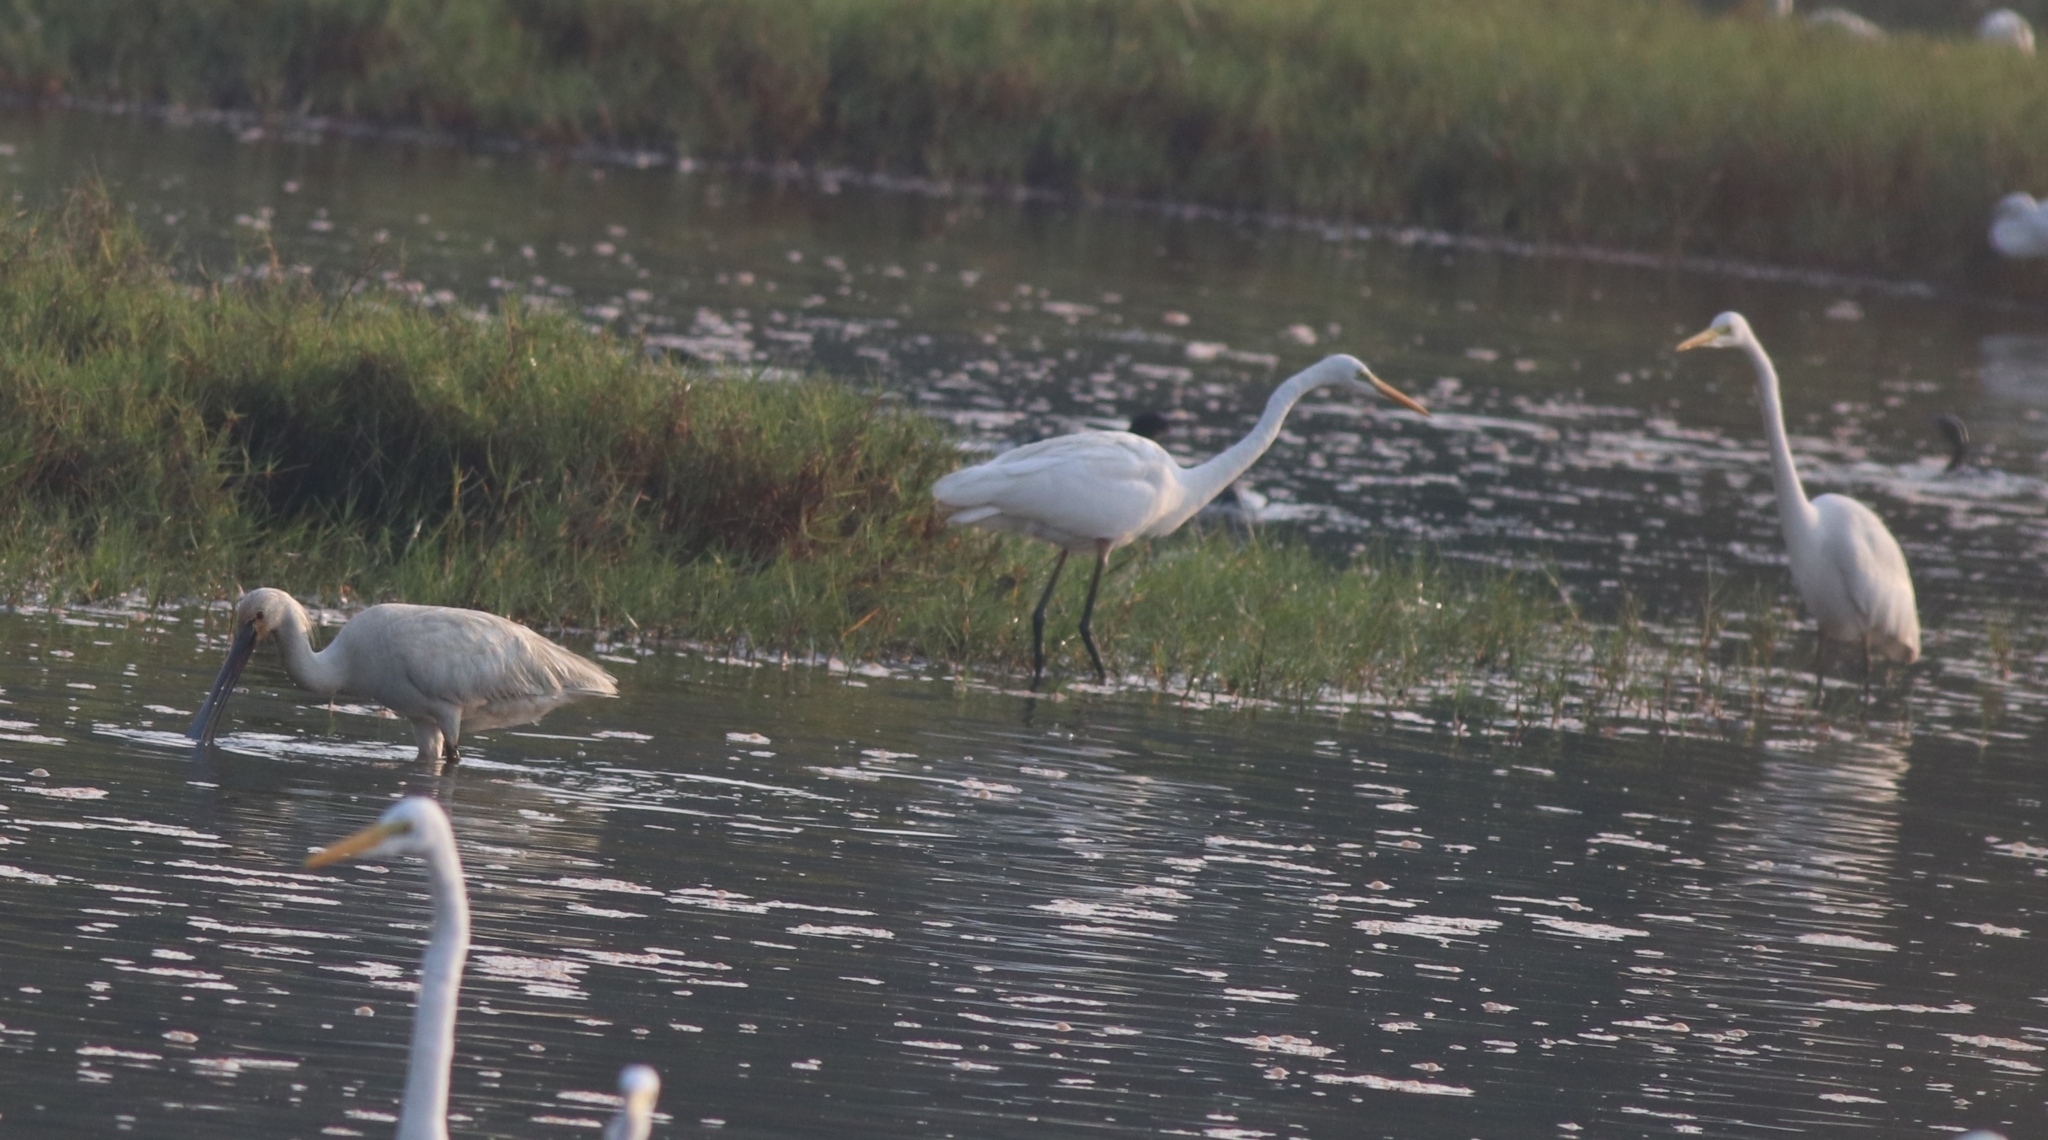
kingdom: Animalia
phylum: Chordata
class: Aves
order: Pelecaniformes
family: Ardeidae
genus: Ardea
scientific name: Ardea alba
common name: Great egret
